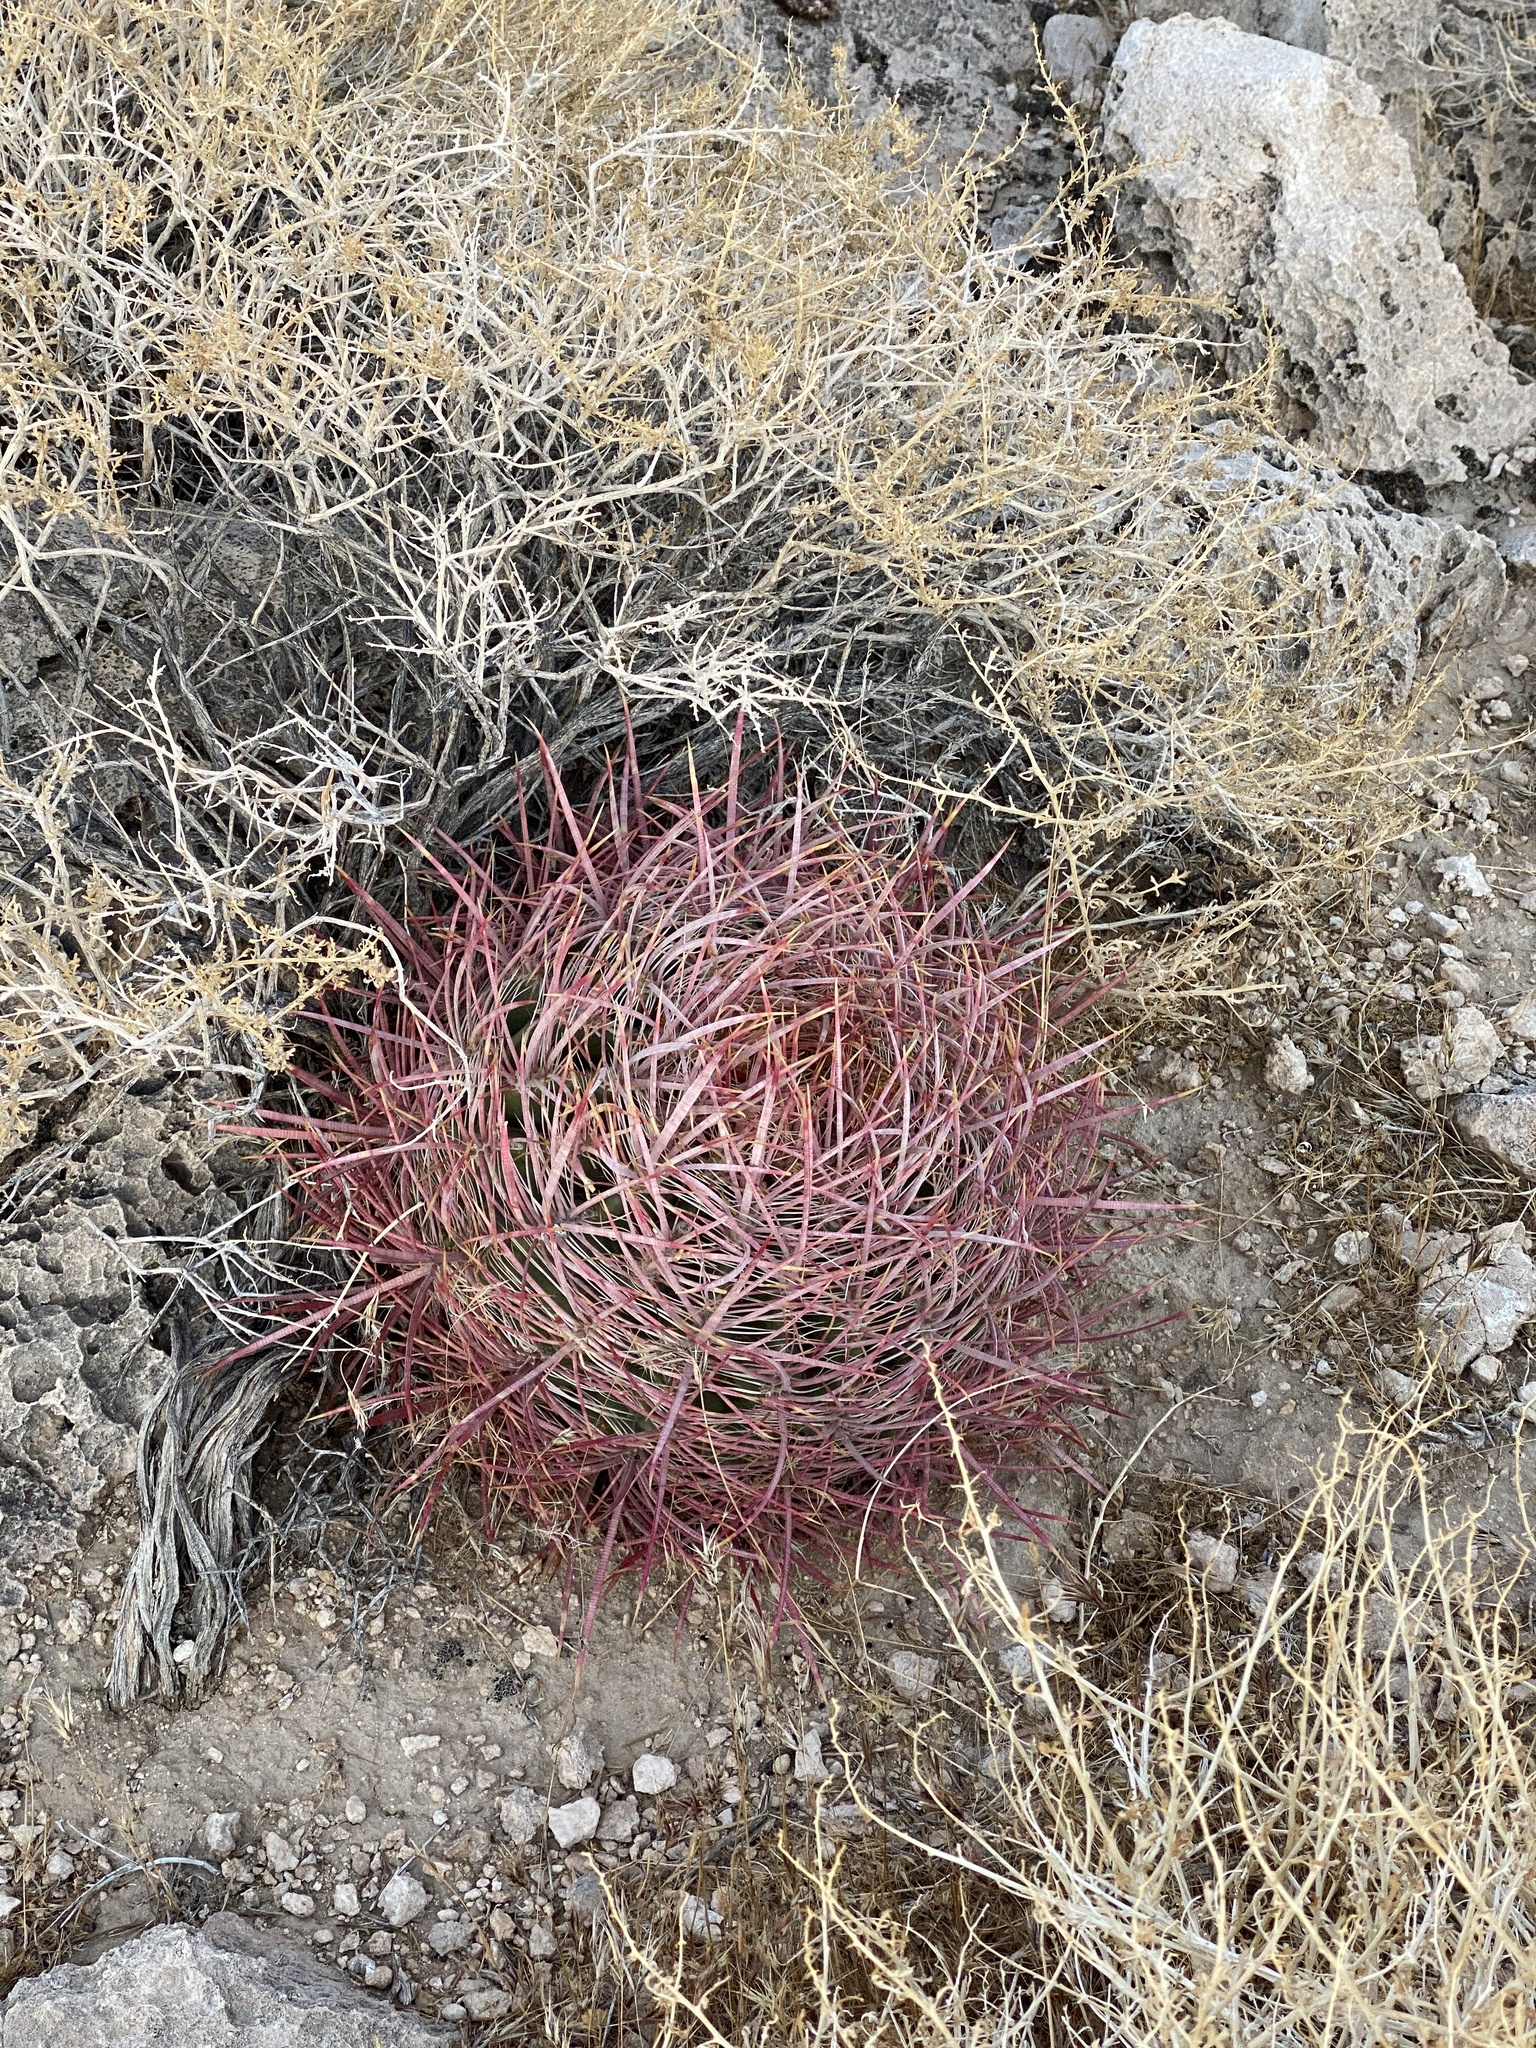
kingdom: Plantae
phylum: Tracheophyta
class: Magnoliopsida
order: Caryophyllales
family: Cactaceae
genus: Ferocactus
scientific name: Ferocactus cylindraceus
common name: California barrel cactus
